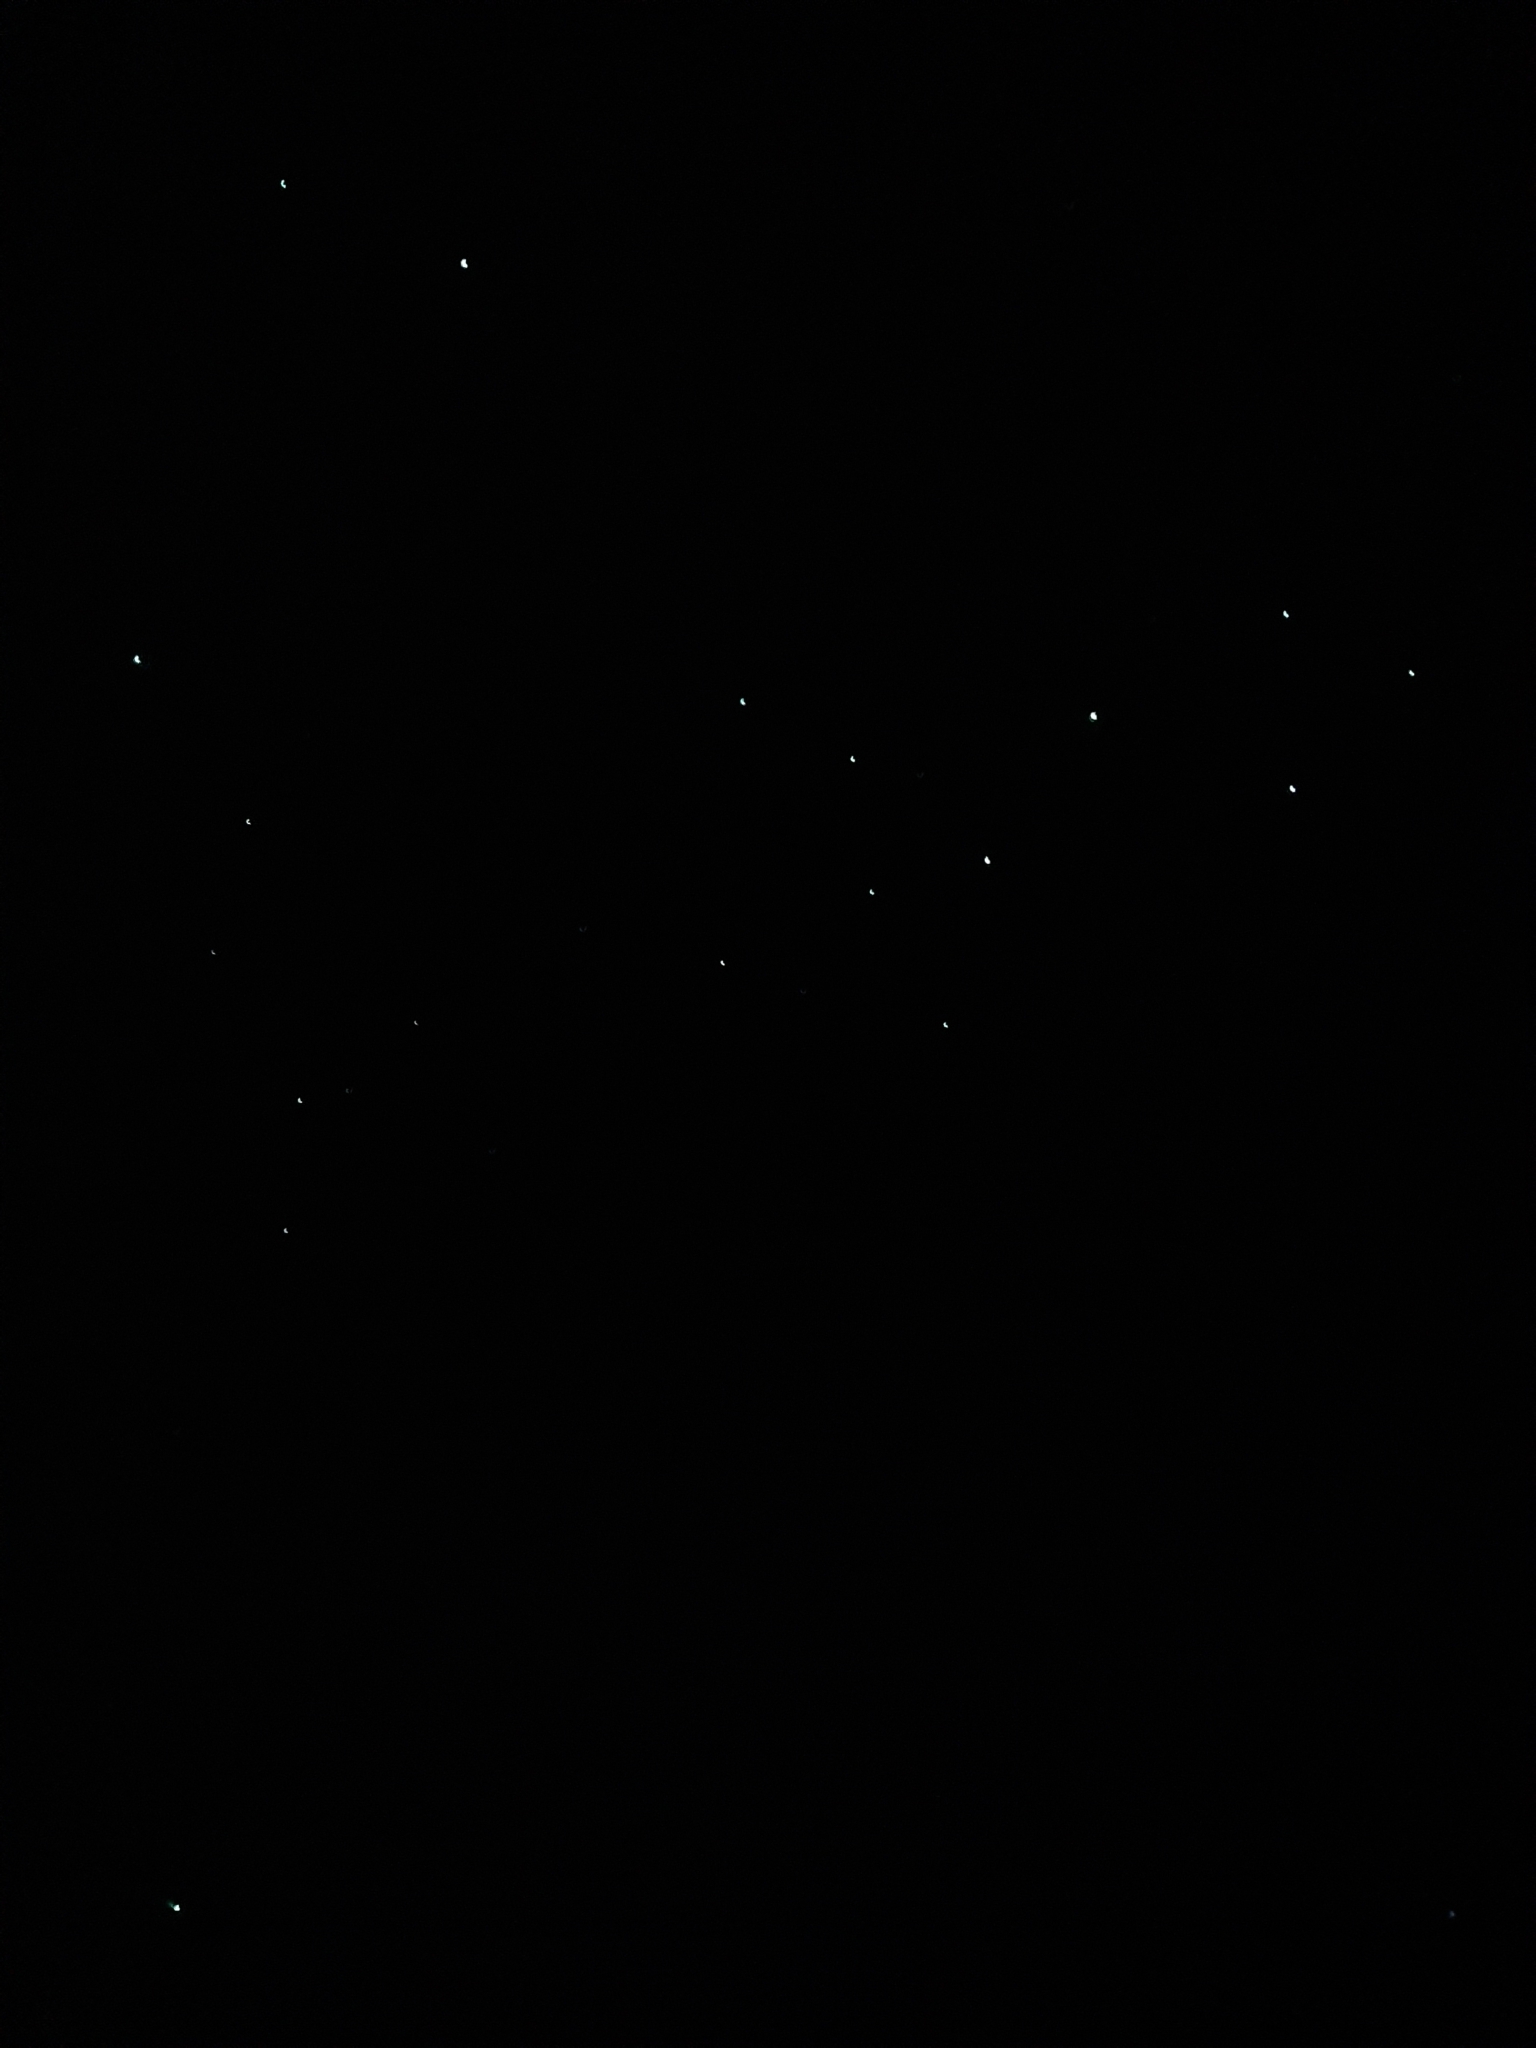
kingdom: Animalia
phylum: Arthropoda
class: Insecta
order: Diptera
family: Keroplatidae
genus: Arachnocampa
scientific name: Arachnocampa luminosa
